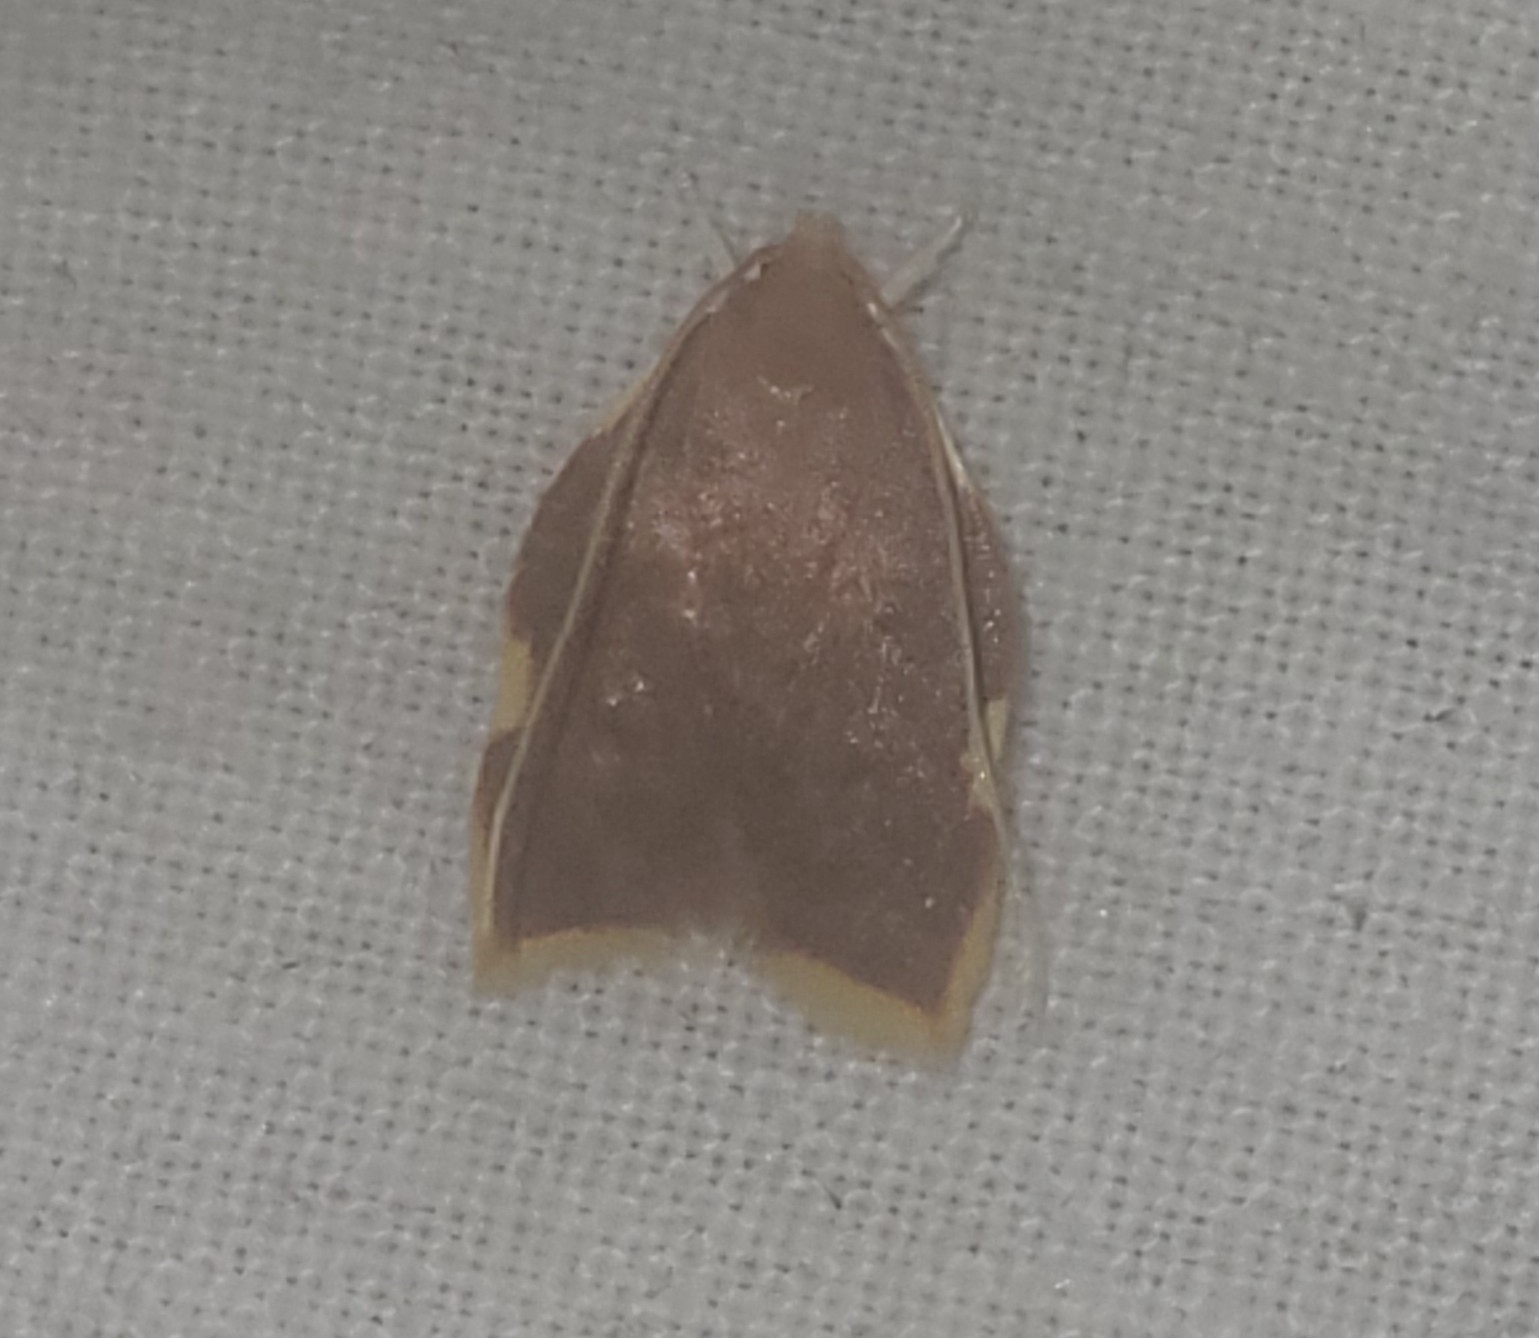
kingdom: Animalia
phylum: Arthropoda
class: Insecta
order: Lepidoptera
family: Peleopodidae
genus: Carcina
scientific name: Carcina quercana
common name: Moth
